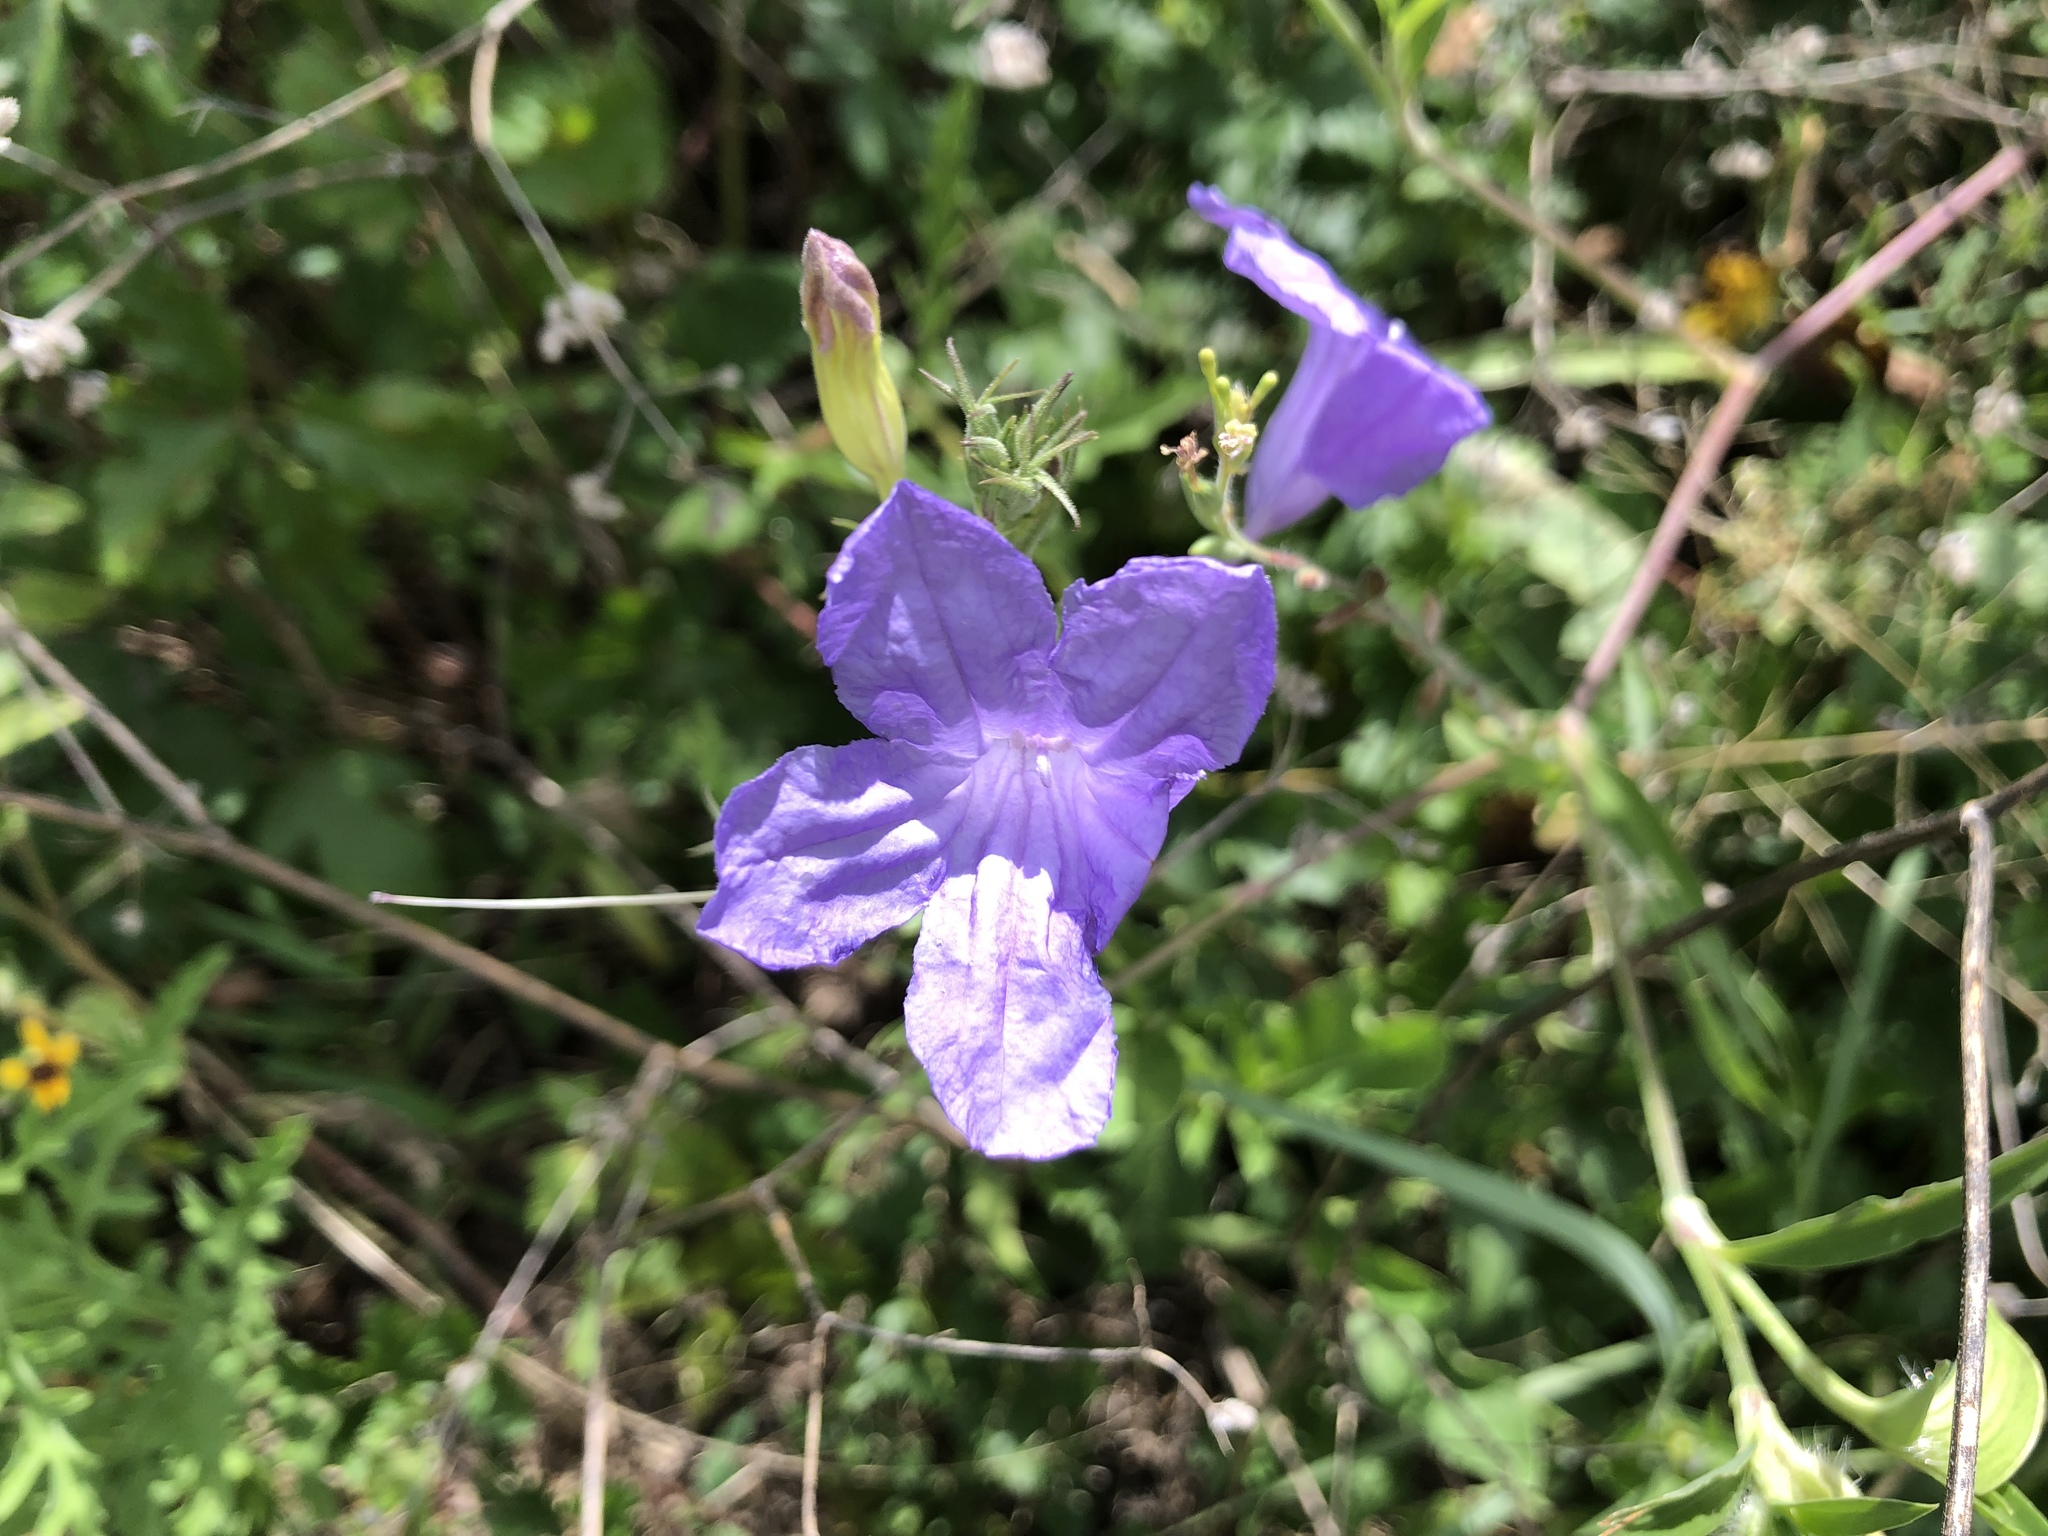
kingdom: Plantae
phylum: Tracheophyta
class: Magnoliopsida
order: Lamiales
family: Acanthaceae
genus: Ruellia
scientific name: Ruellia ciliatiflora
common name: Hairyflower wild petunia
